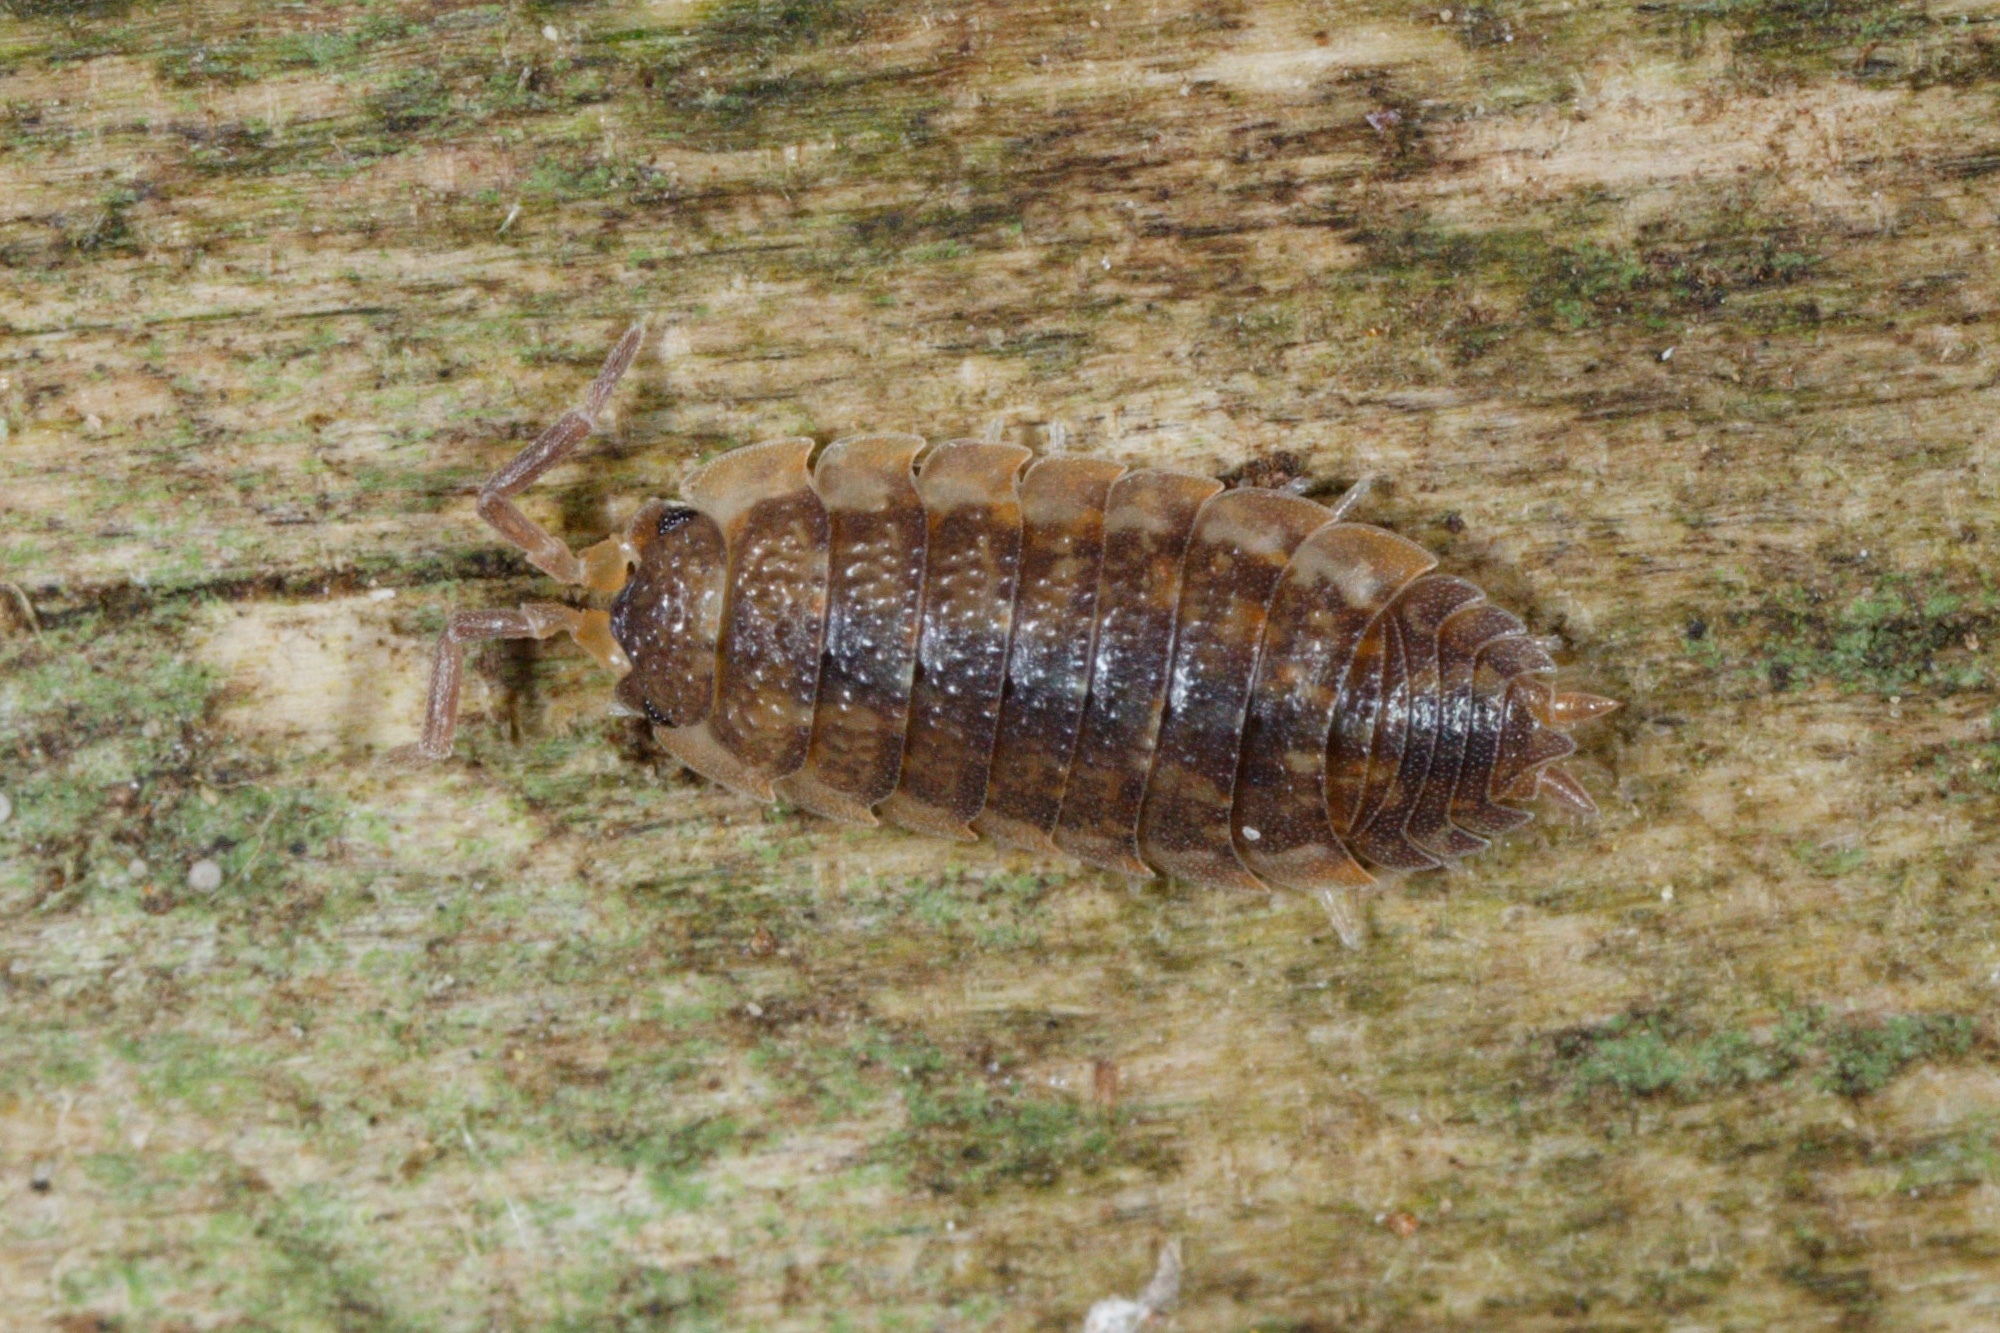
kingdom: Animalia
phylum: Arthropoda
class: Malacostraca
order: Isopoda
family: Porcellionidae
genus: Porcellio
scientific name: Porcellio scaber
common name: Common rough woodlouse
